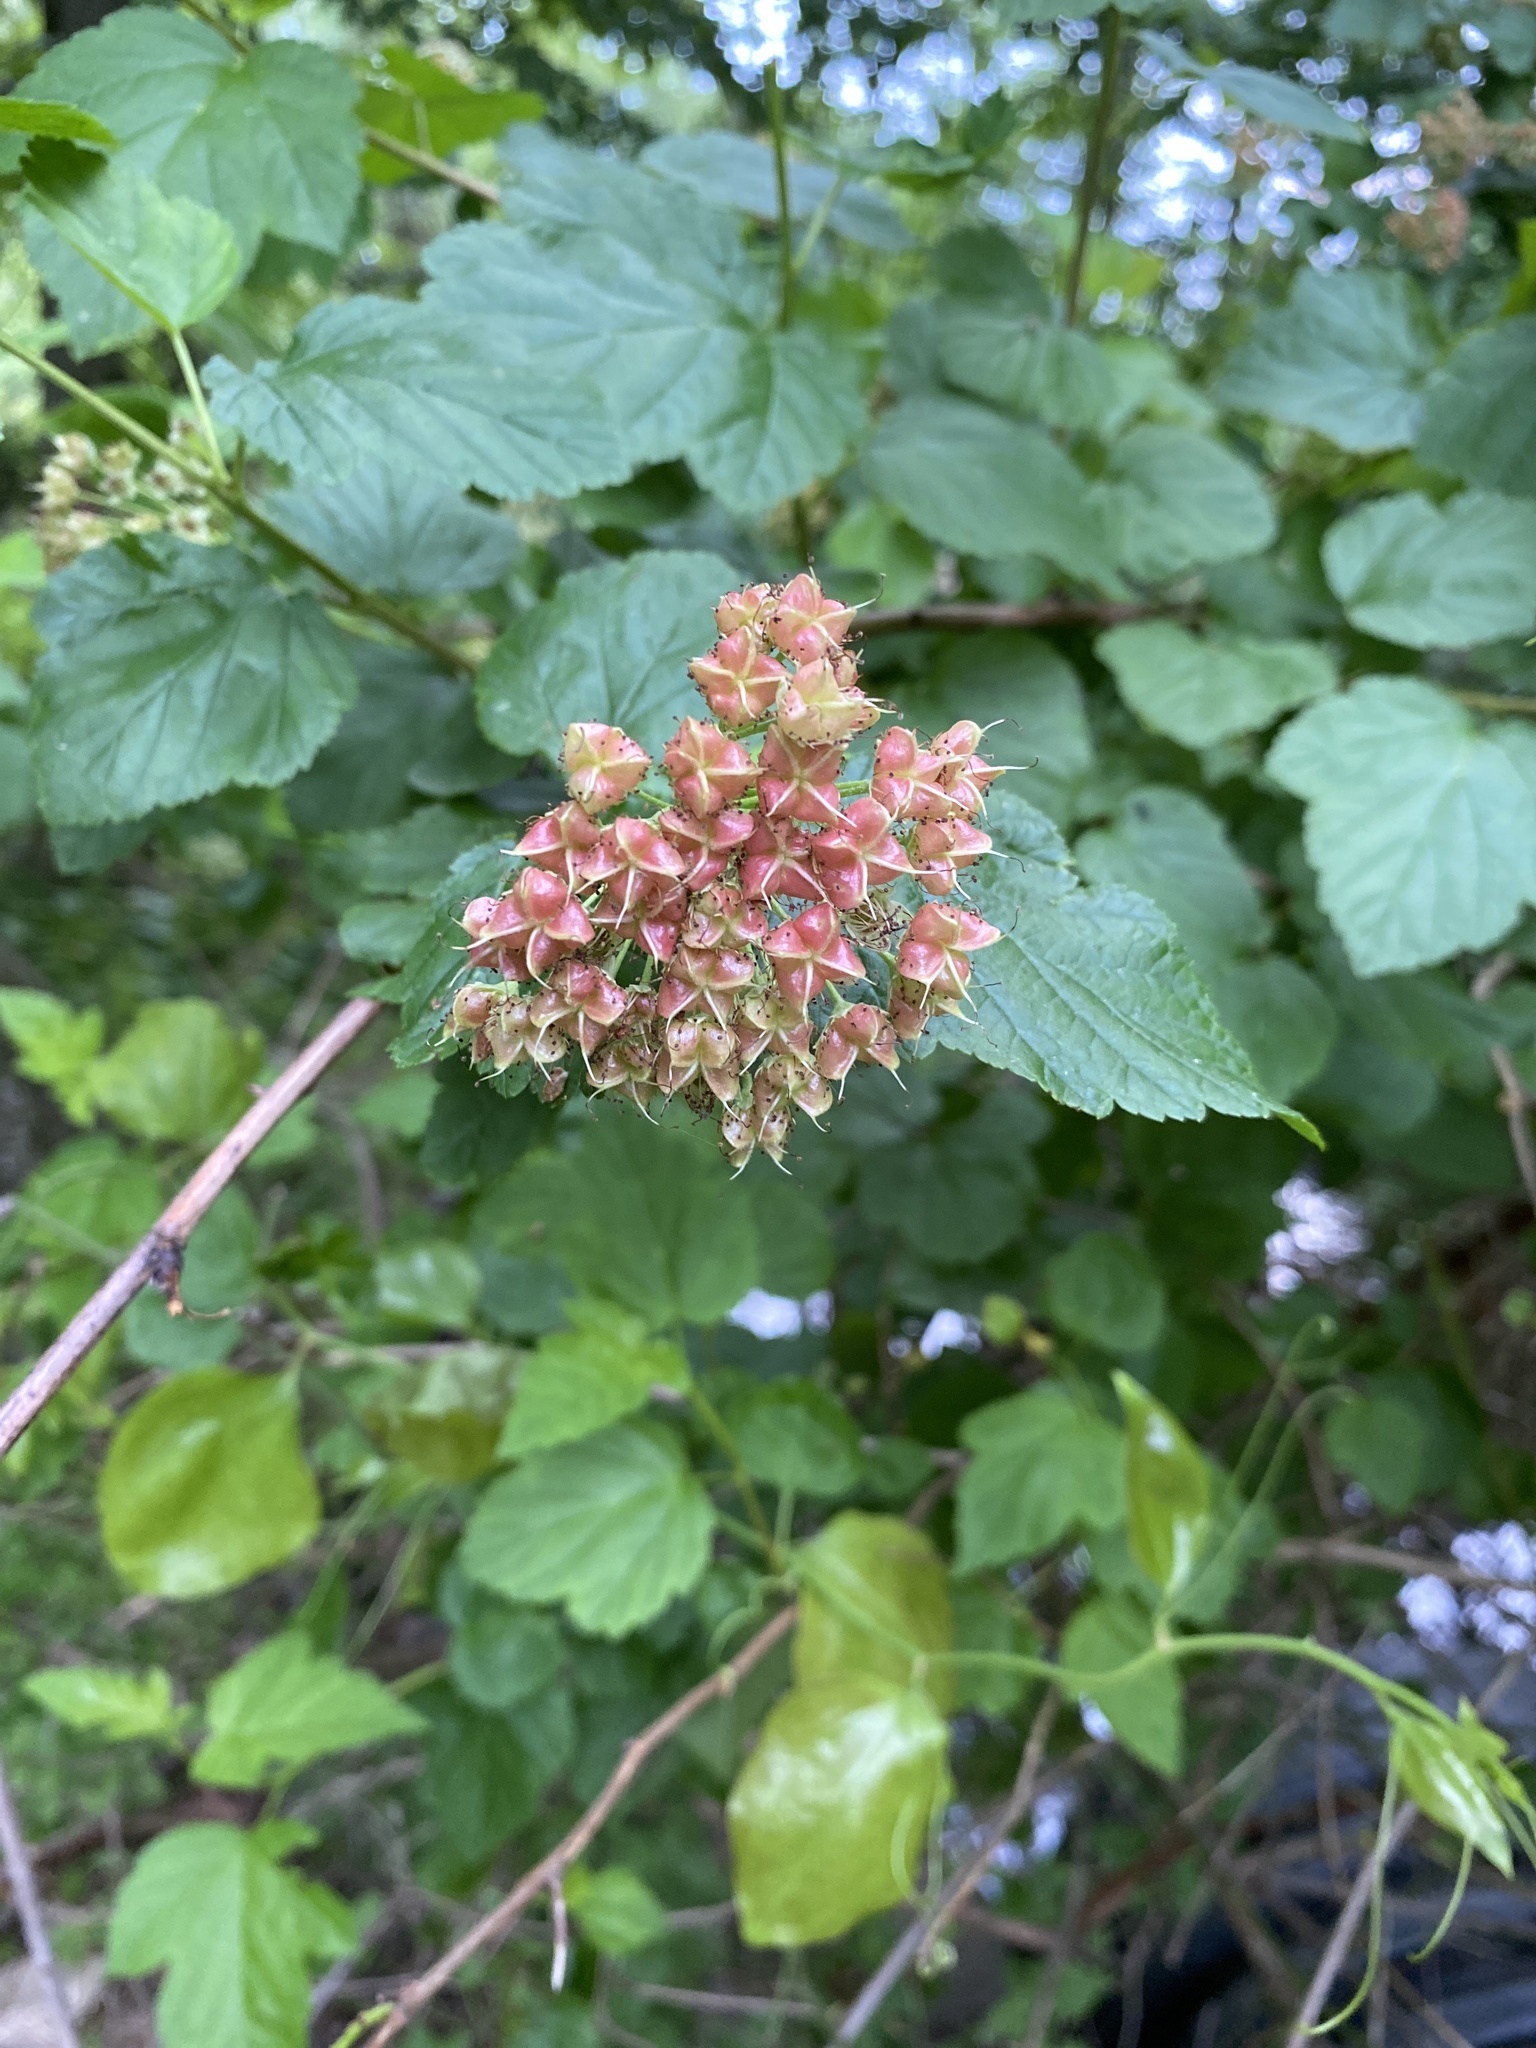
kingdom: Plantae
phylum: Tracheophyta
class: Magnoliopsida
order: Rosales
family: Rosaceae
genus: Physocarpus
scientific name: Physocarpus opulifolius
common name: Ninebark
